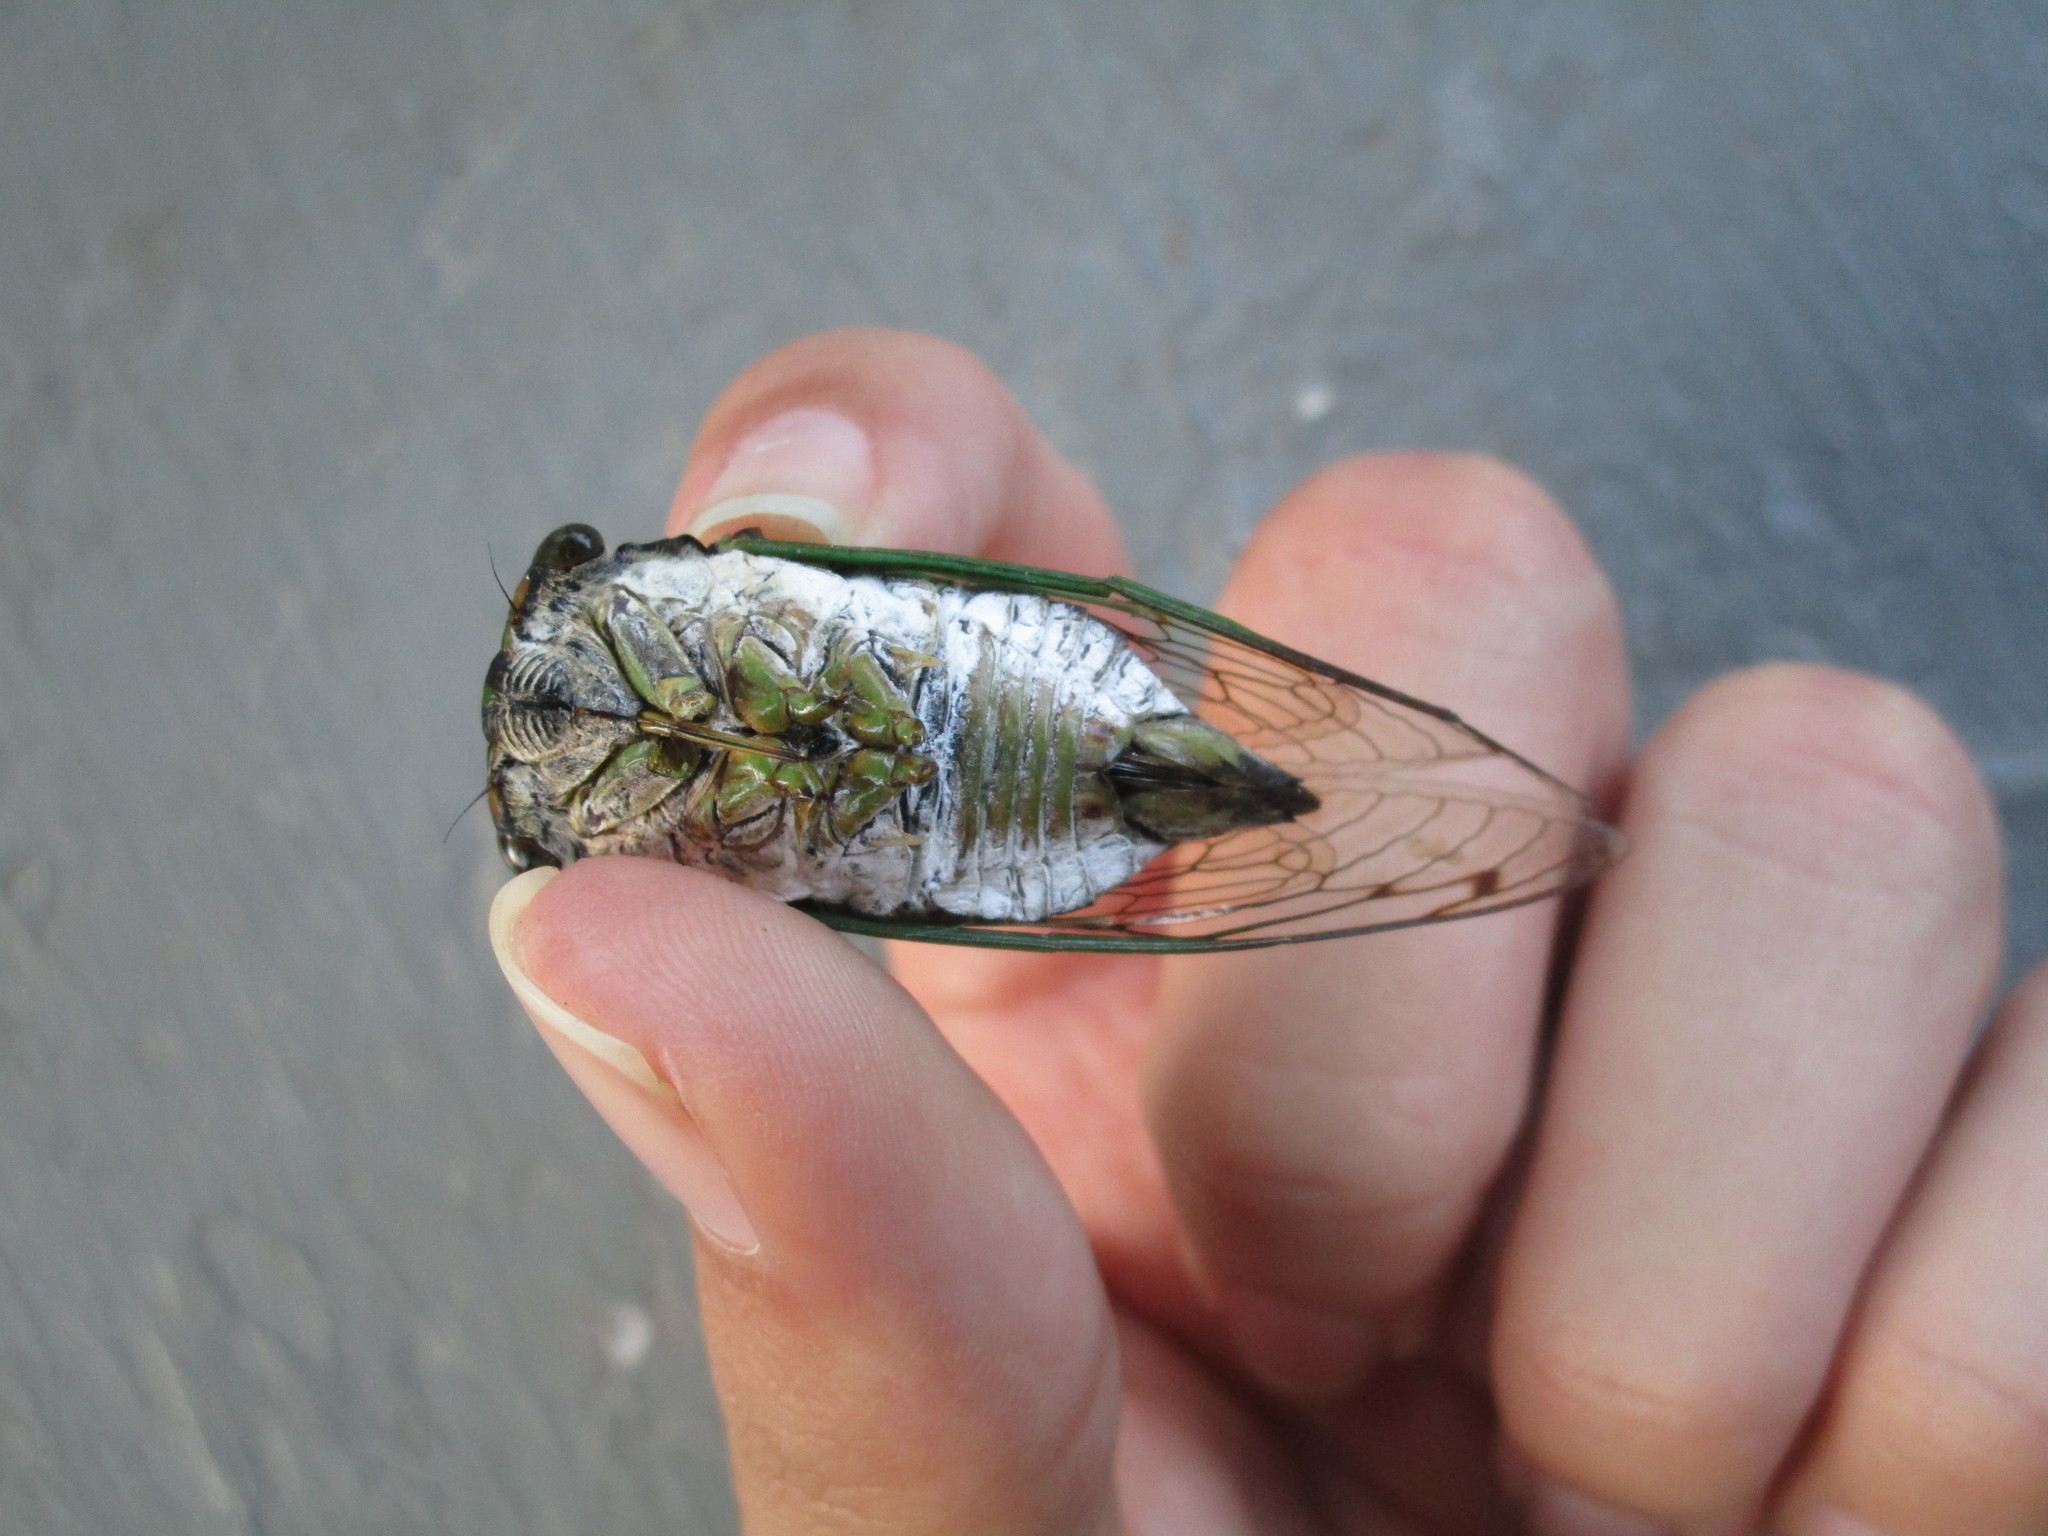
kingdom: Animalia
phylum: Arthropoda
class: Insecta
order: Hemiptera
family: Cicadidae
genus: Neotibicen
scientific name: Neotibicen tibicen
